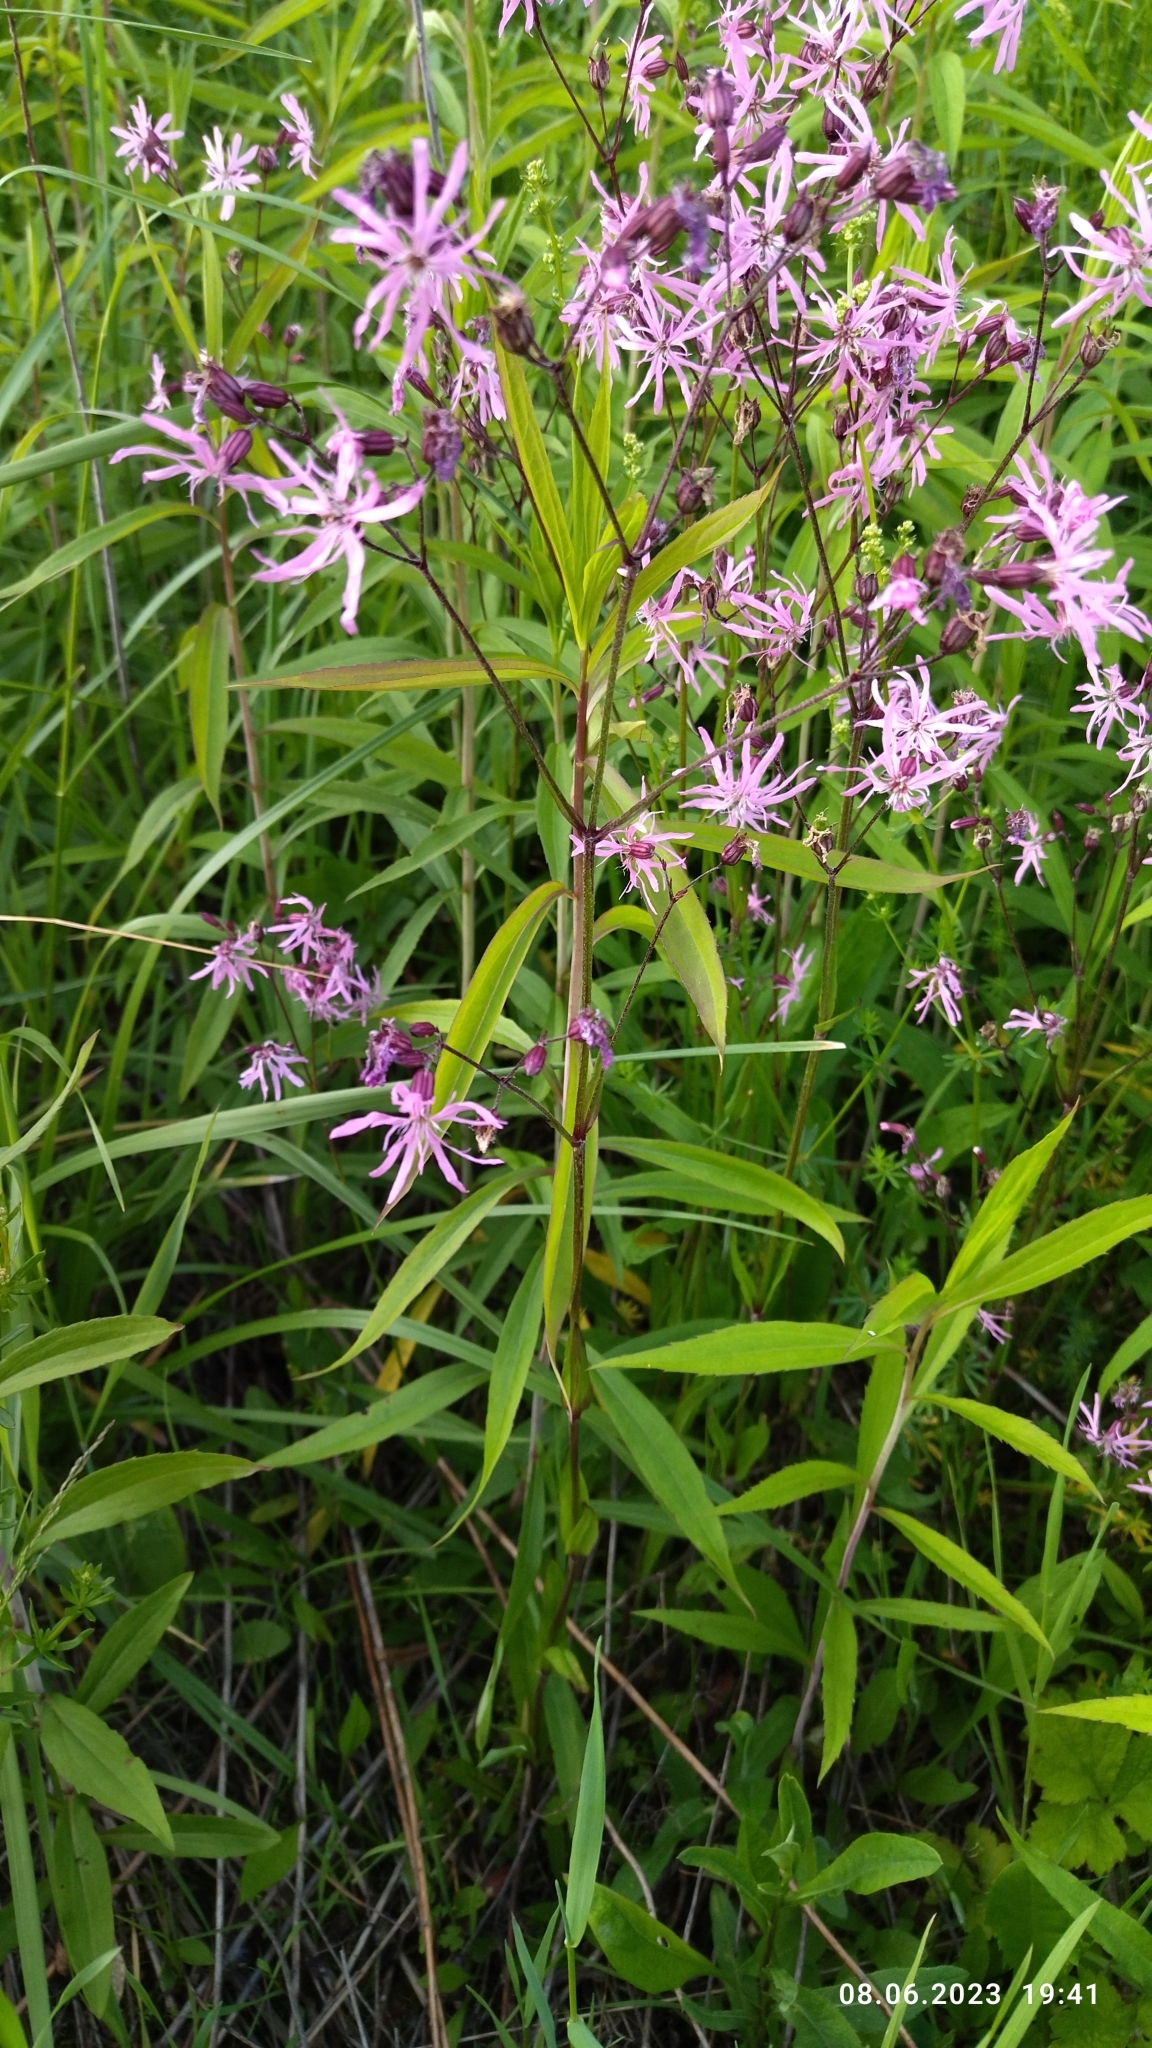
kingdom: Plantae
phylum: Tracheophyta
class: Magnoliopsida
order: Caryophyllales
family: Caryophyllaceae
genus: Silene
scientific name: Silene flos-cuculi
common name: Ragged-robin
